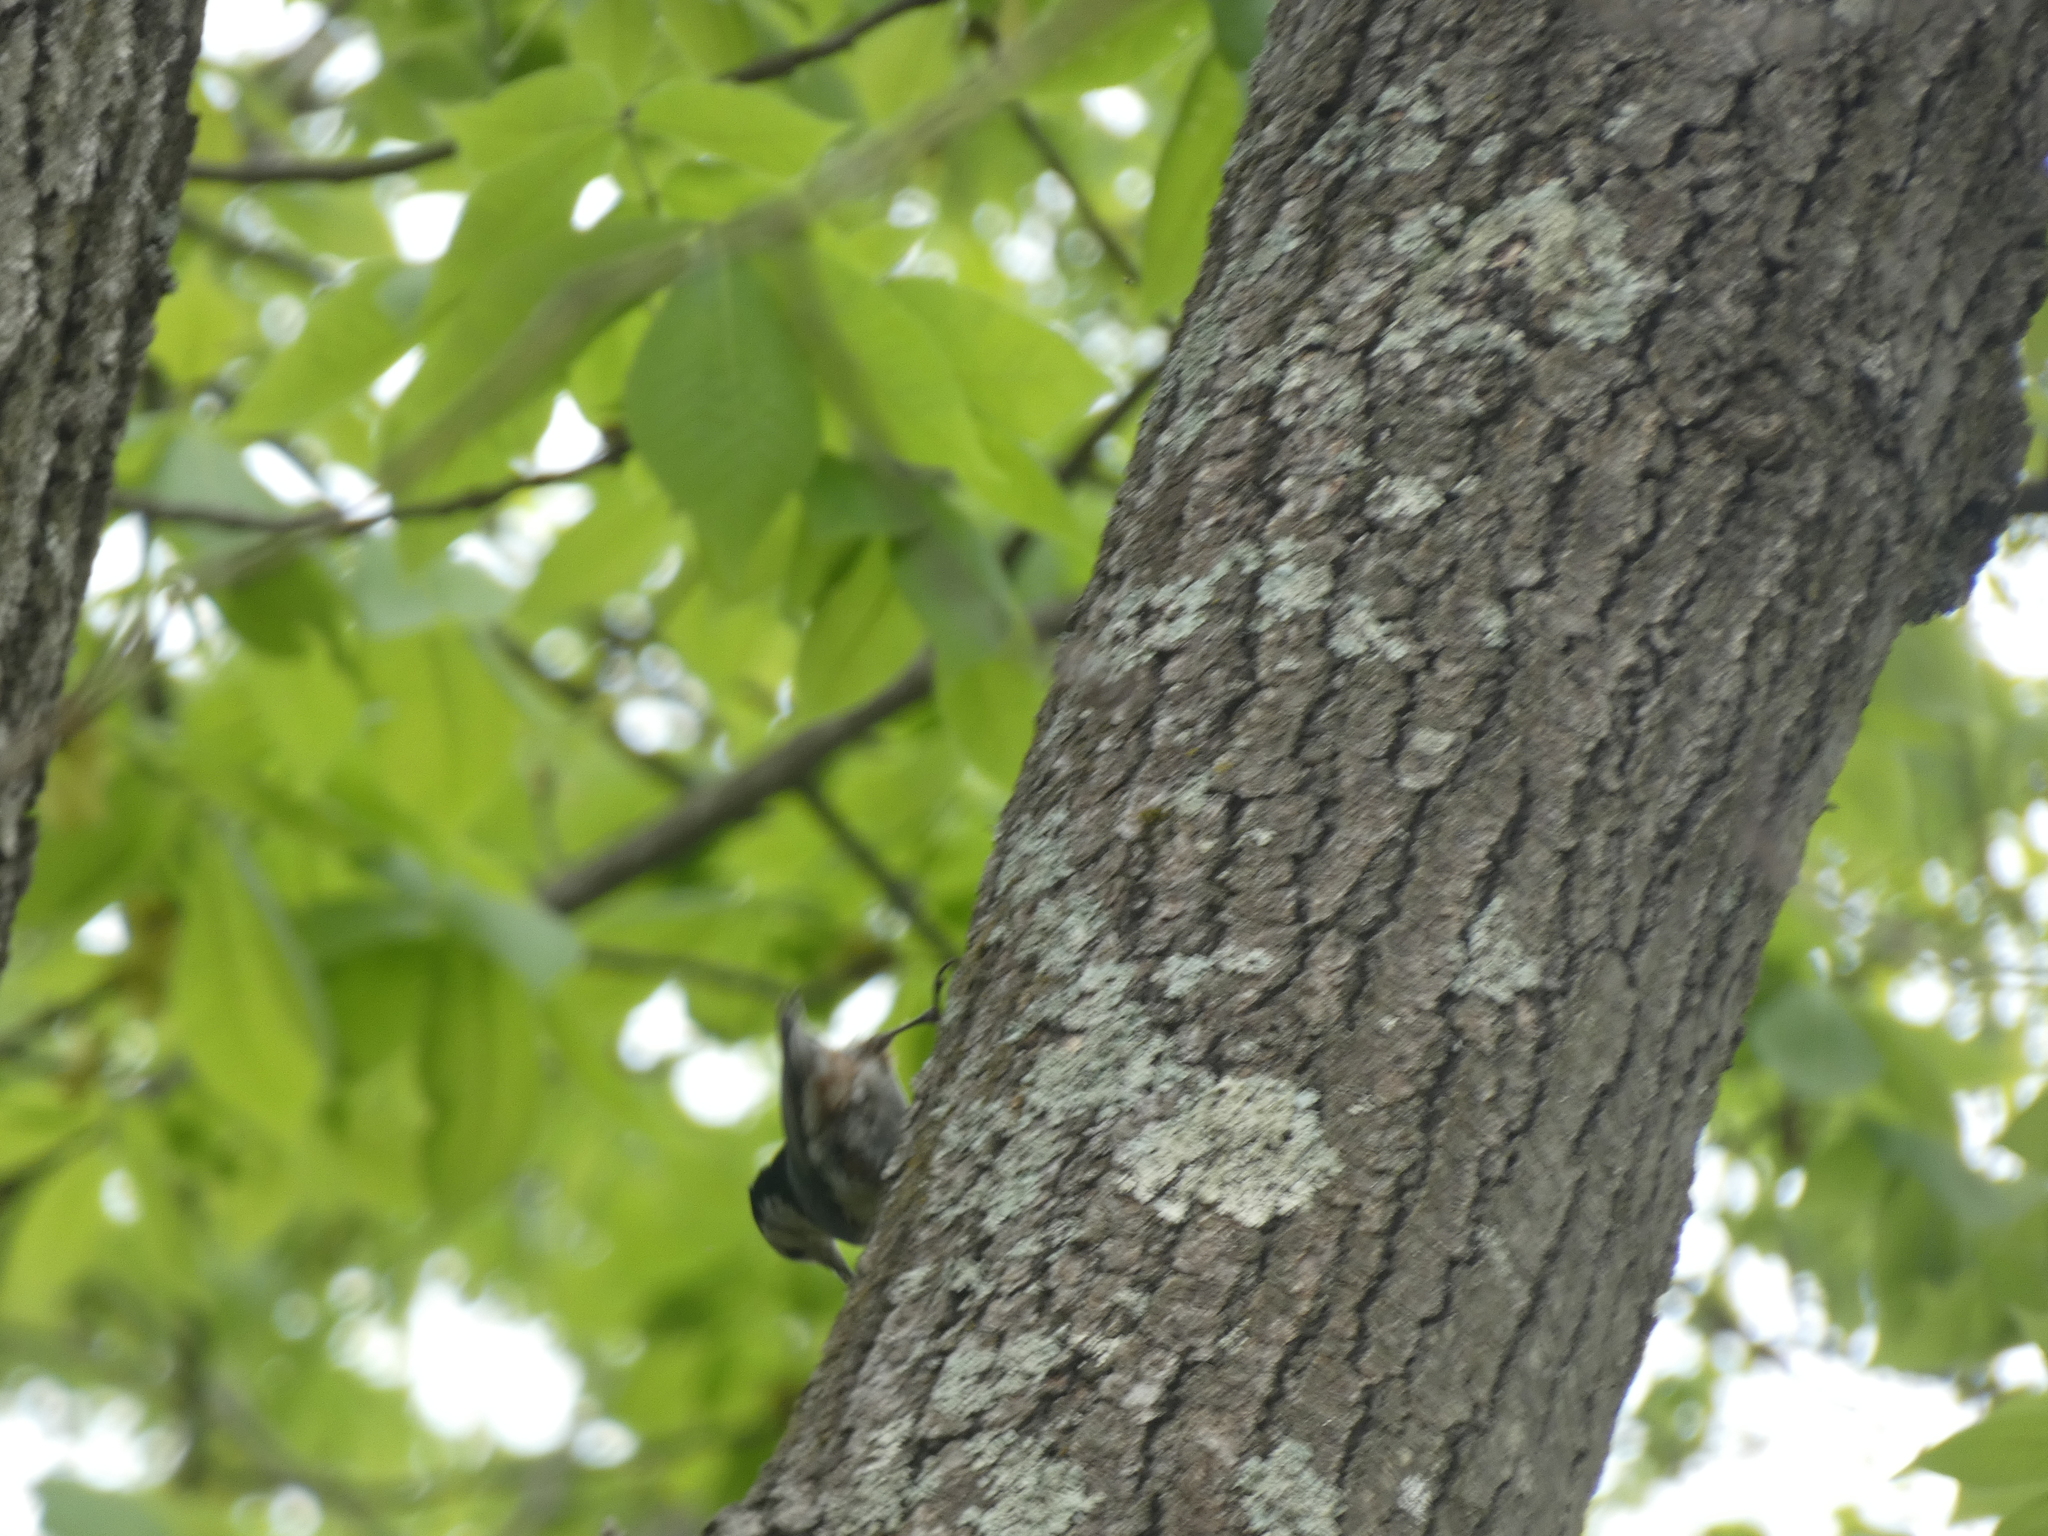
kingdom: Animalia
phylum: Chordata
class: Aves
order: Passeriformes
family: Sittidae
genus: Sitta
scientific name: Sitta carolinensis
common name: White-breasted nuthatch
